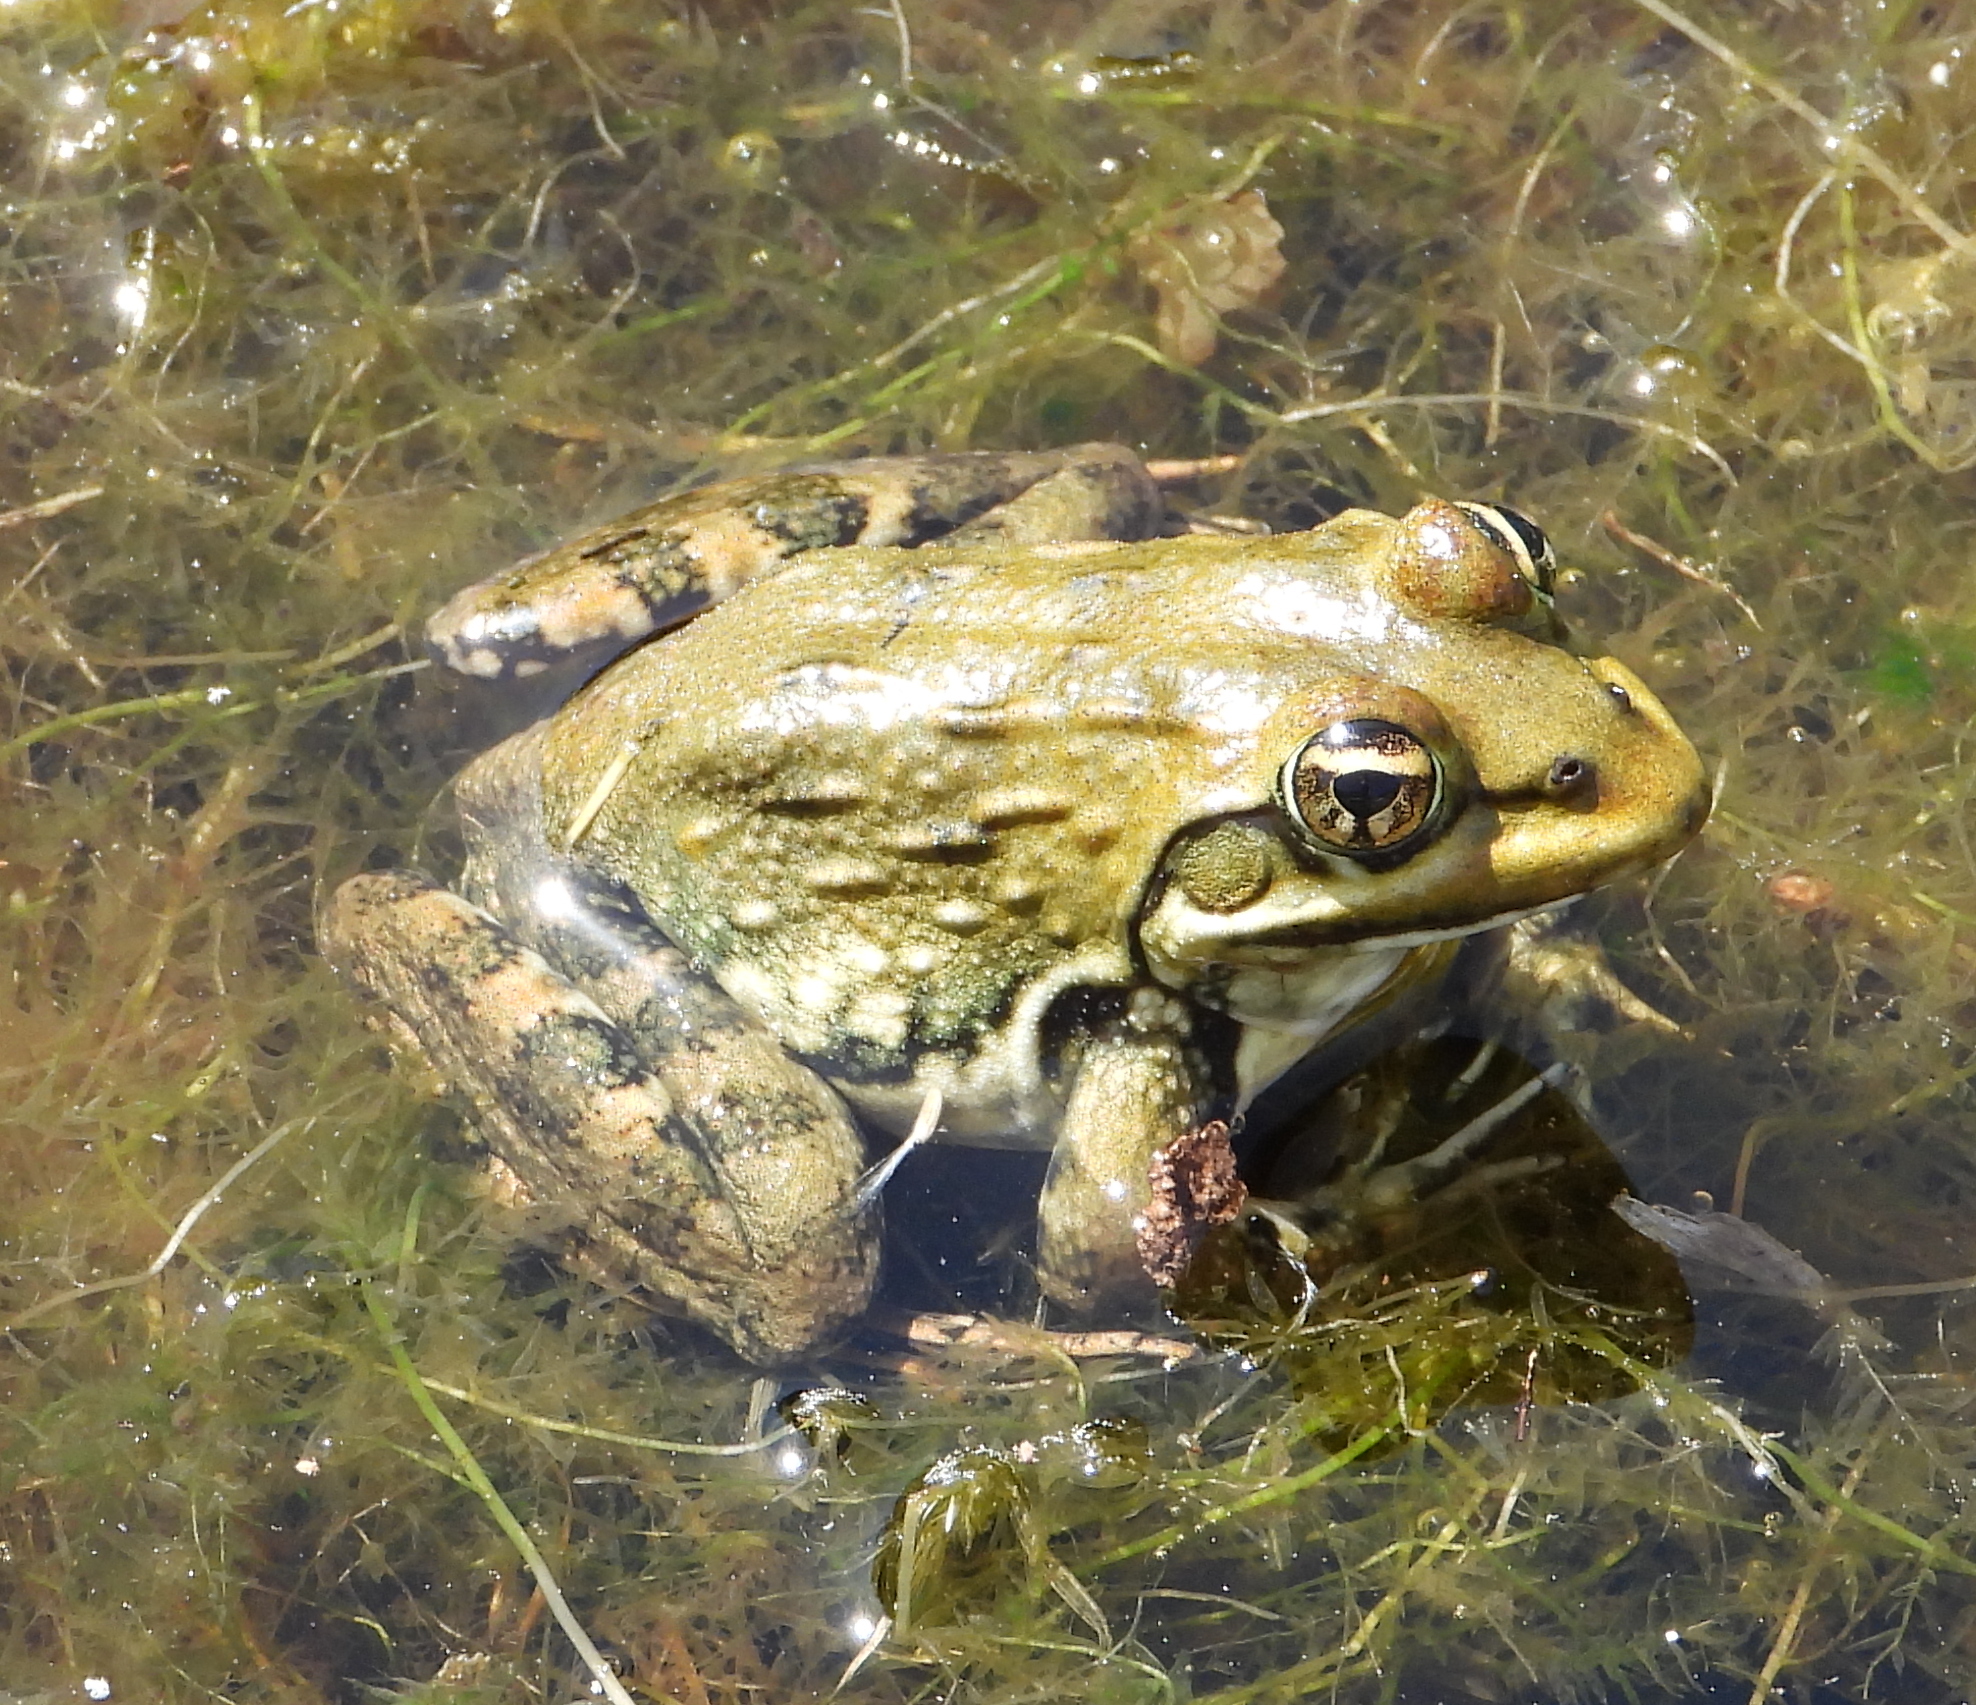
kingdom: Animalia
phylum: Chordata
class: Amphibia
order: Anura
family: Pyxicephalidae
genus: Amietia
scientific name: Amietia fuscigula
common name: Cape rana
